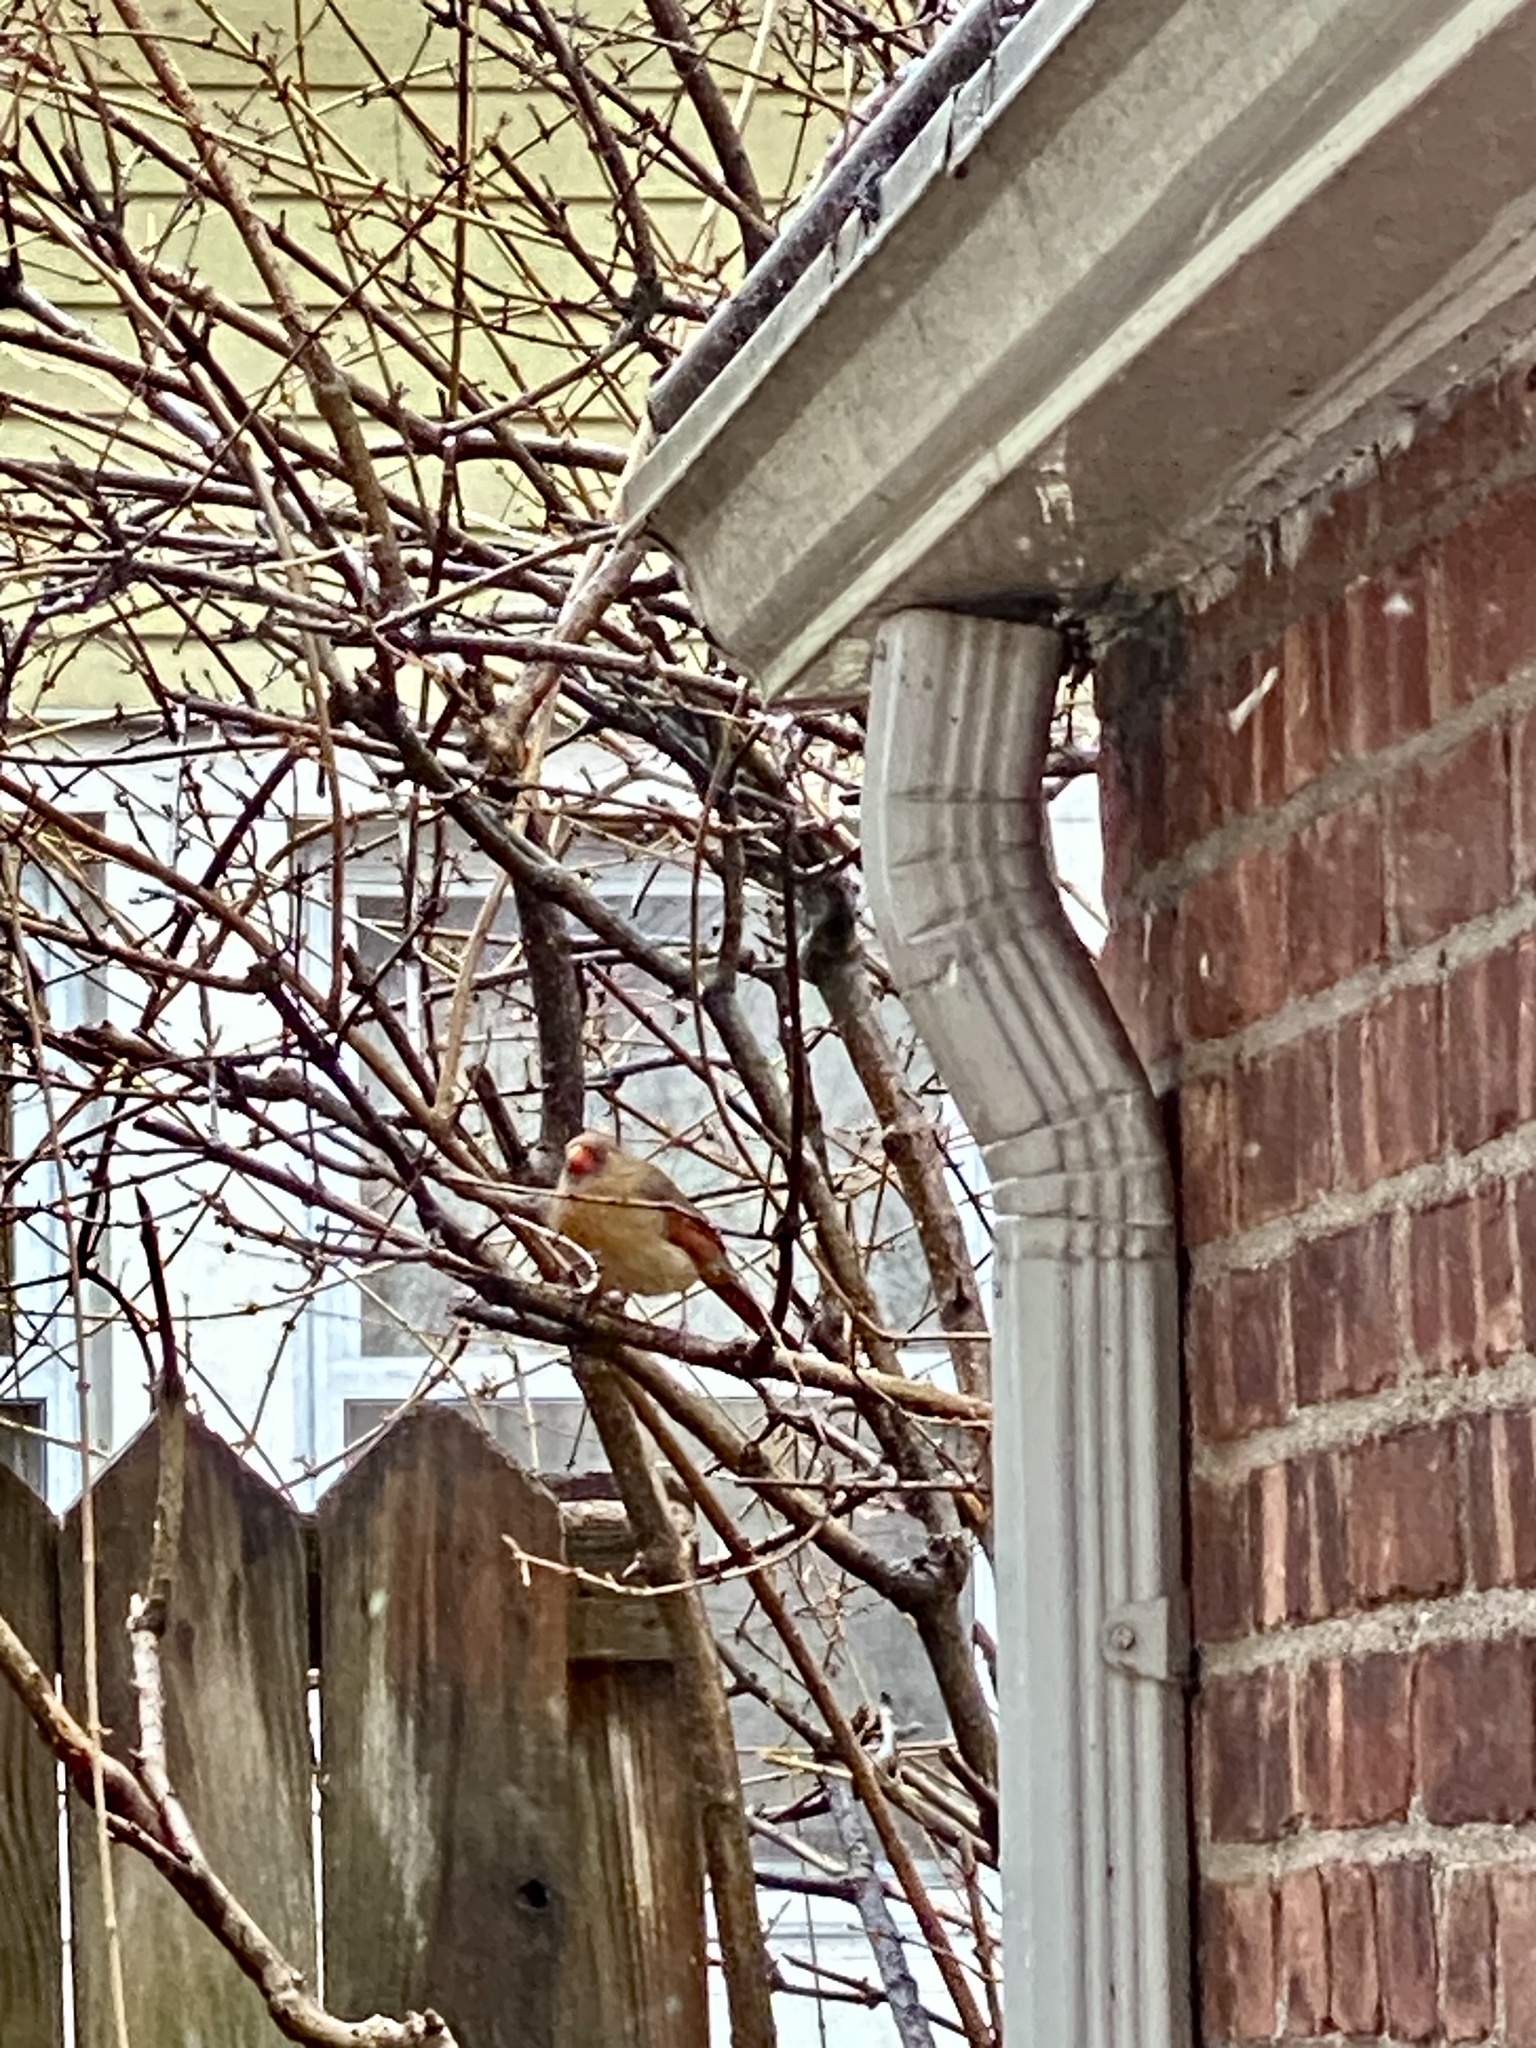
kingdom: Animalia
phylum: Chordata
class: Aves
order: Passeriformes
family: Cardinalidae
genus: Cardinalis
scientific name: Cardinalis cardinalis
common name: Northern cardinal
